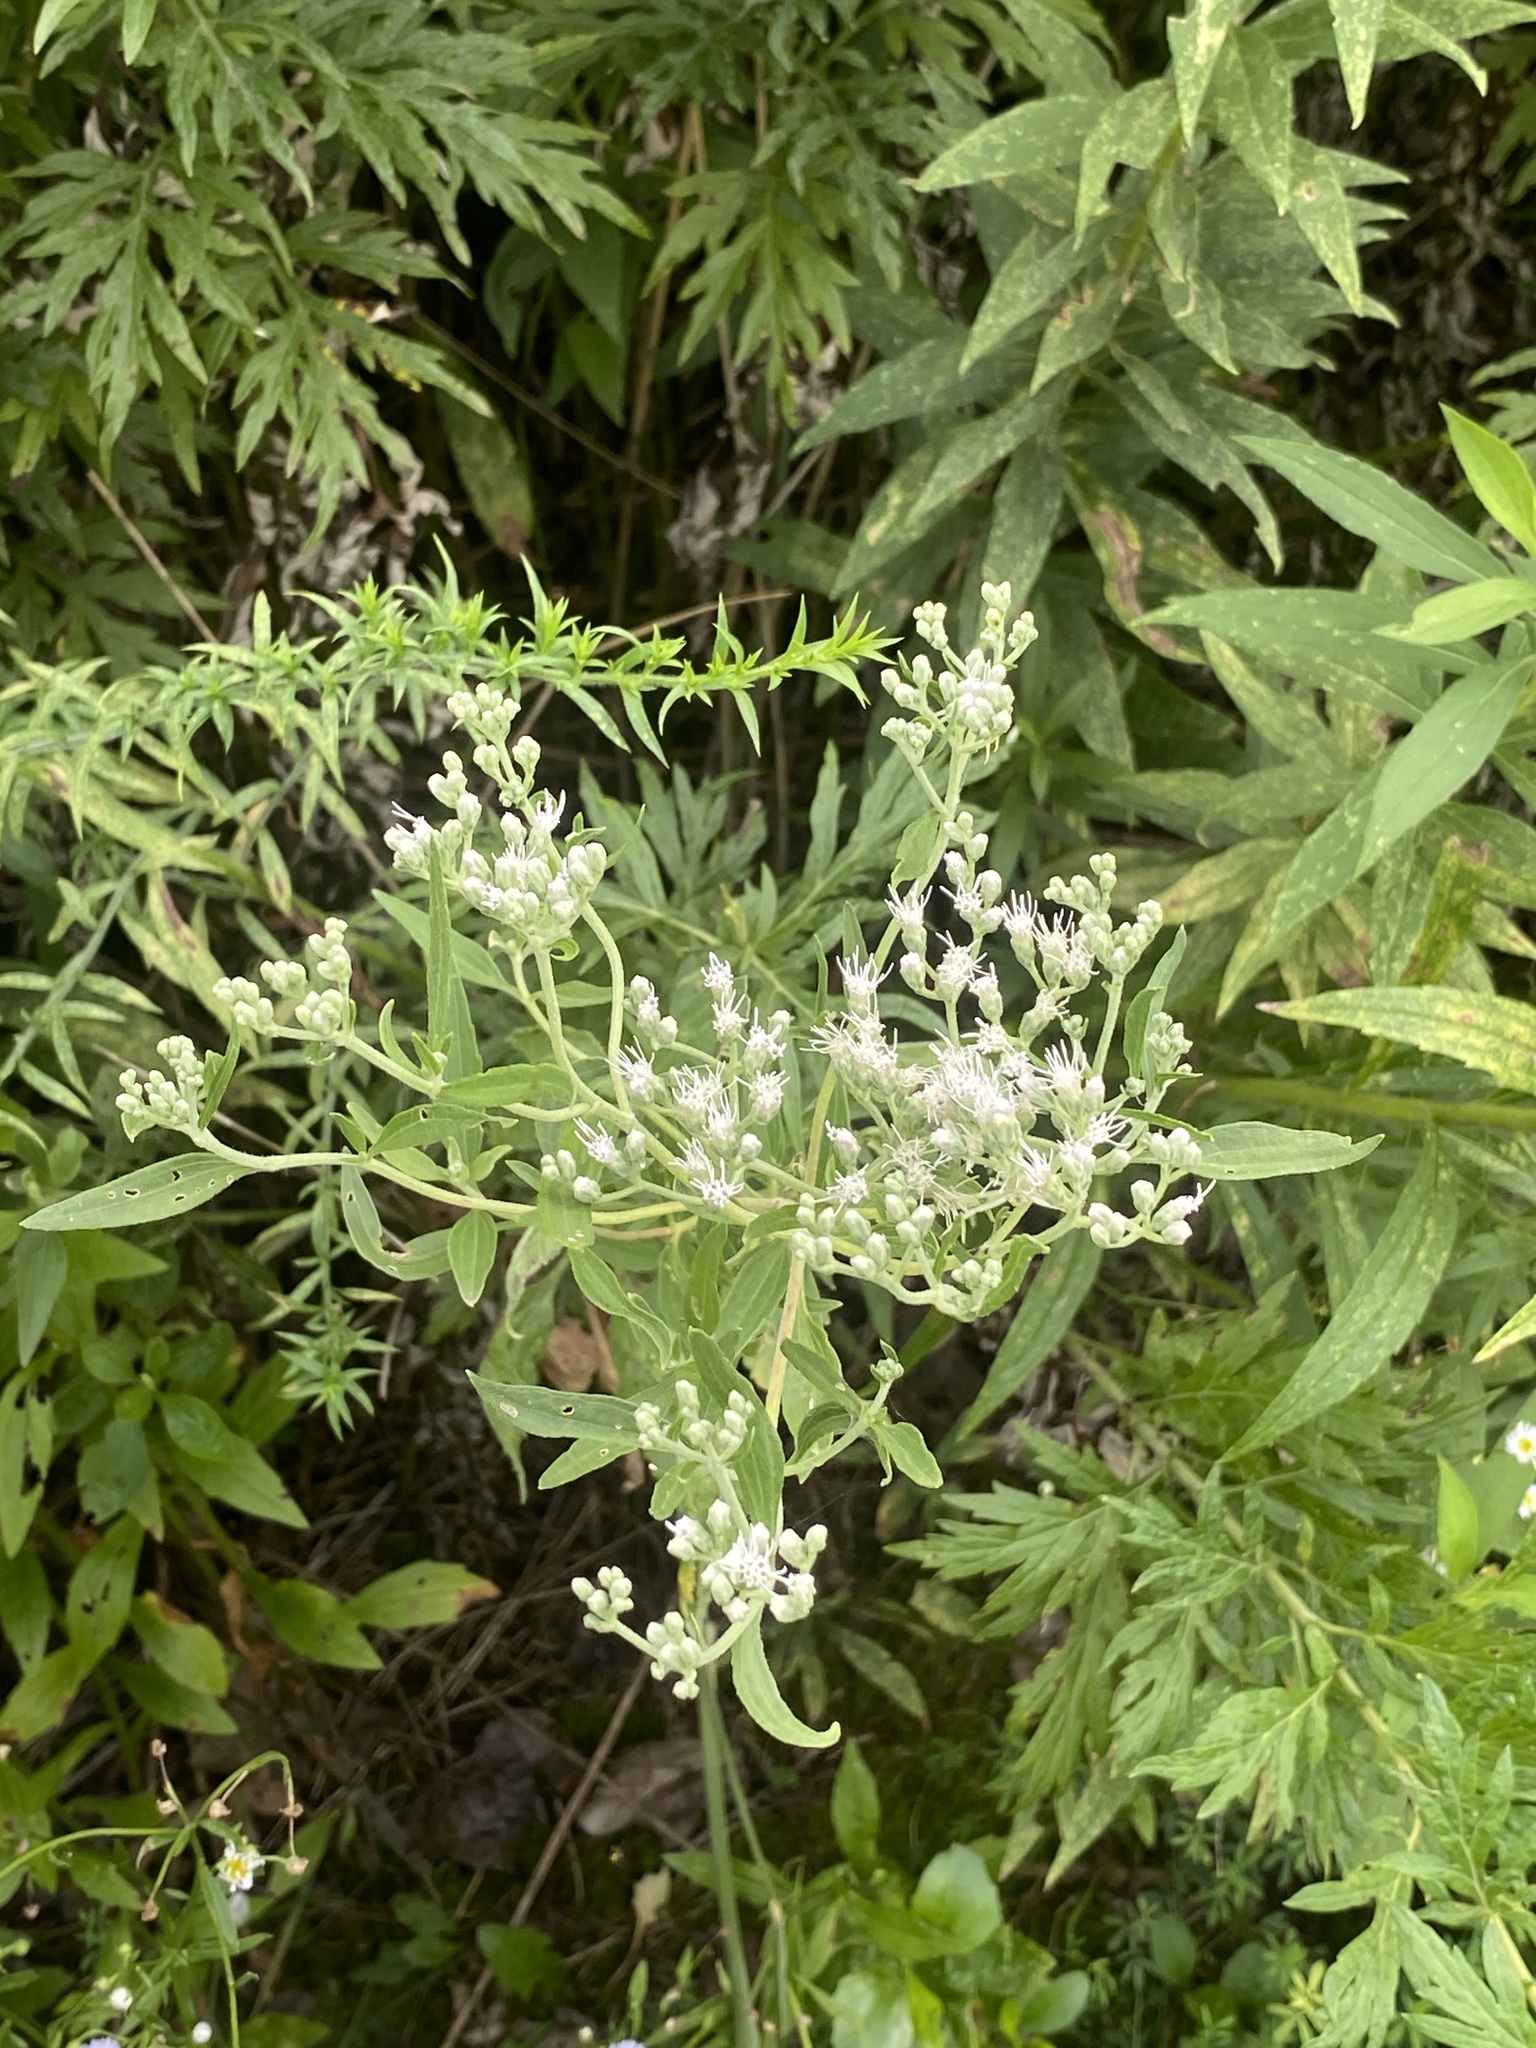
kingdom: Plantae
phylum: Tracheophyta
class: Magnoliopsida
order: Asterales
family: Asteraceae
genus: Eupatorium
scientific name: Eupatorium serotinum
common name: Late boneset
